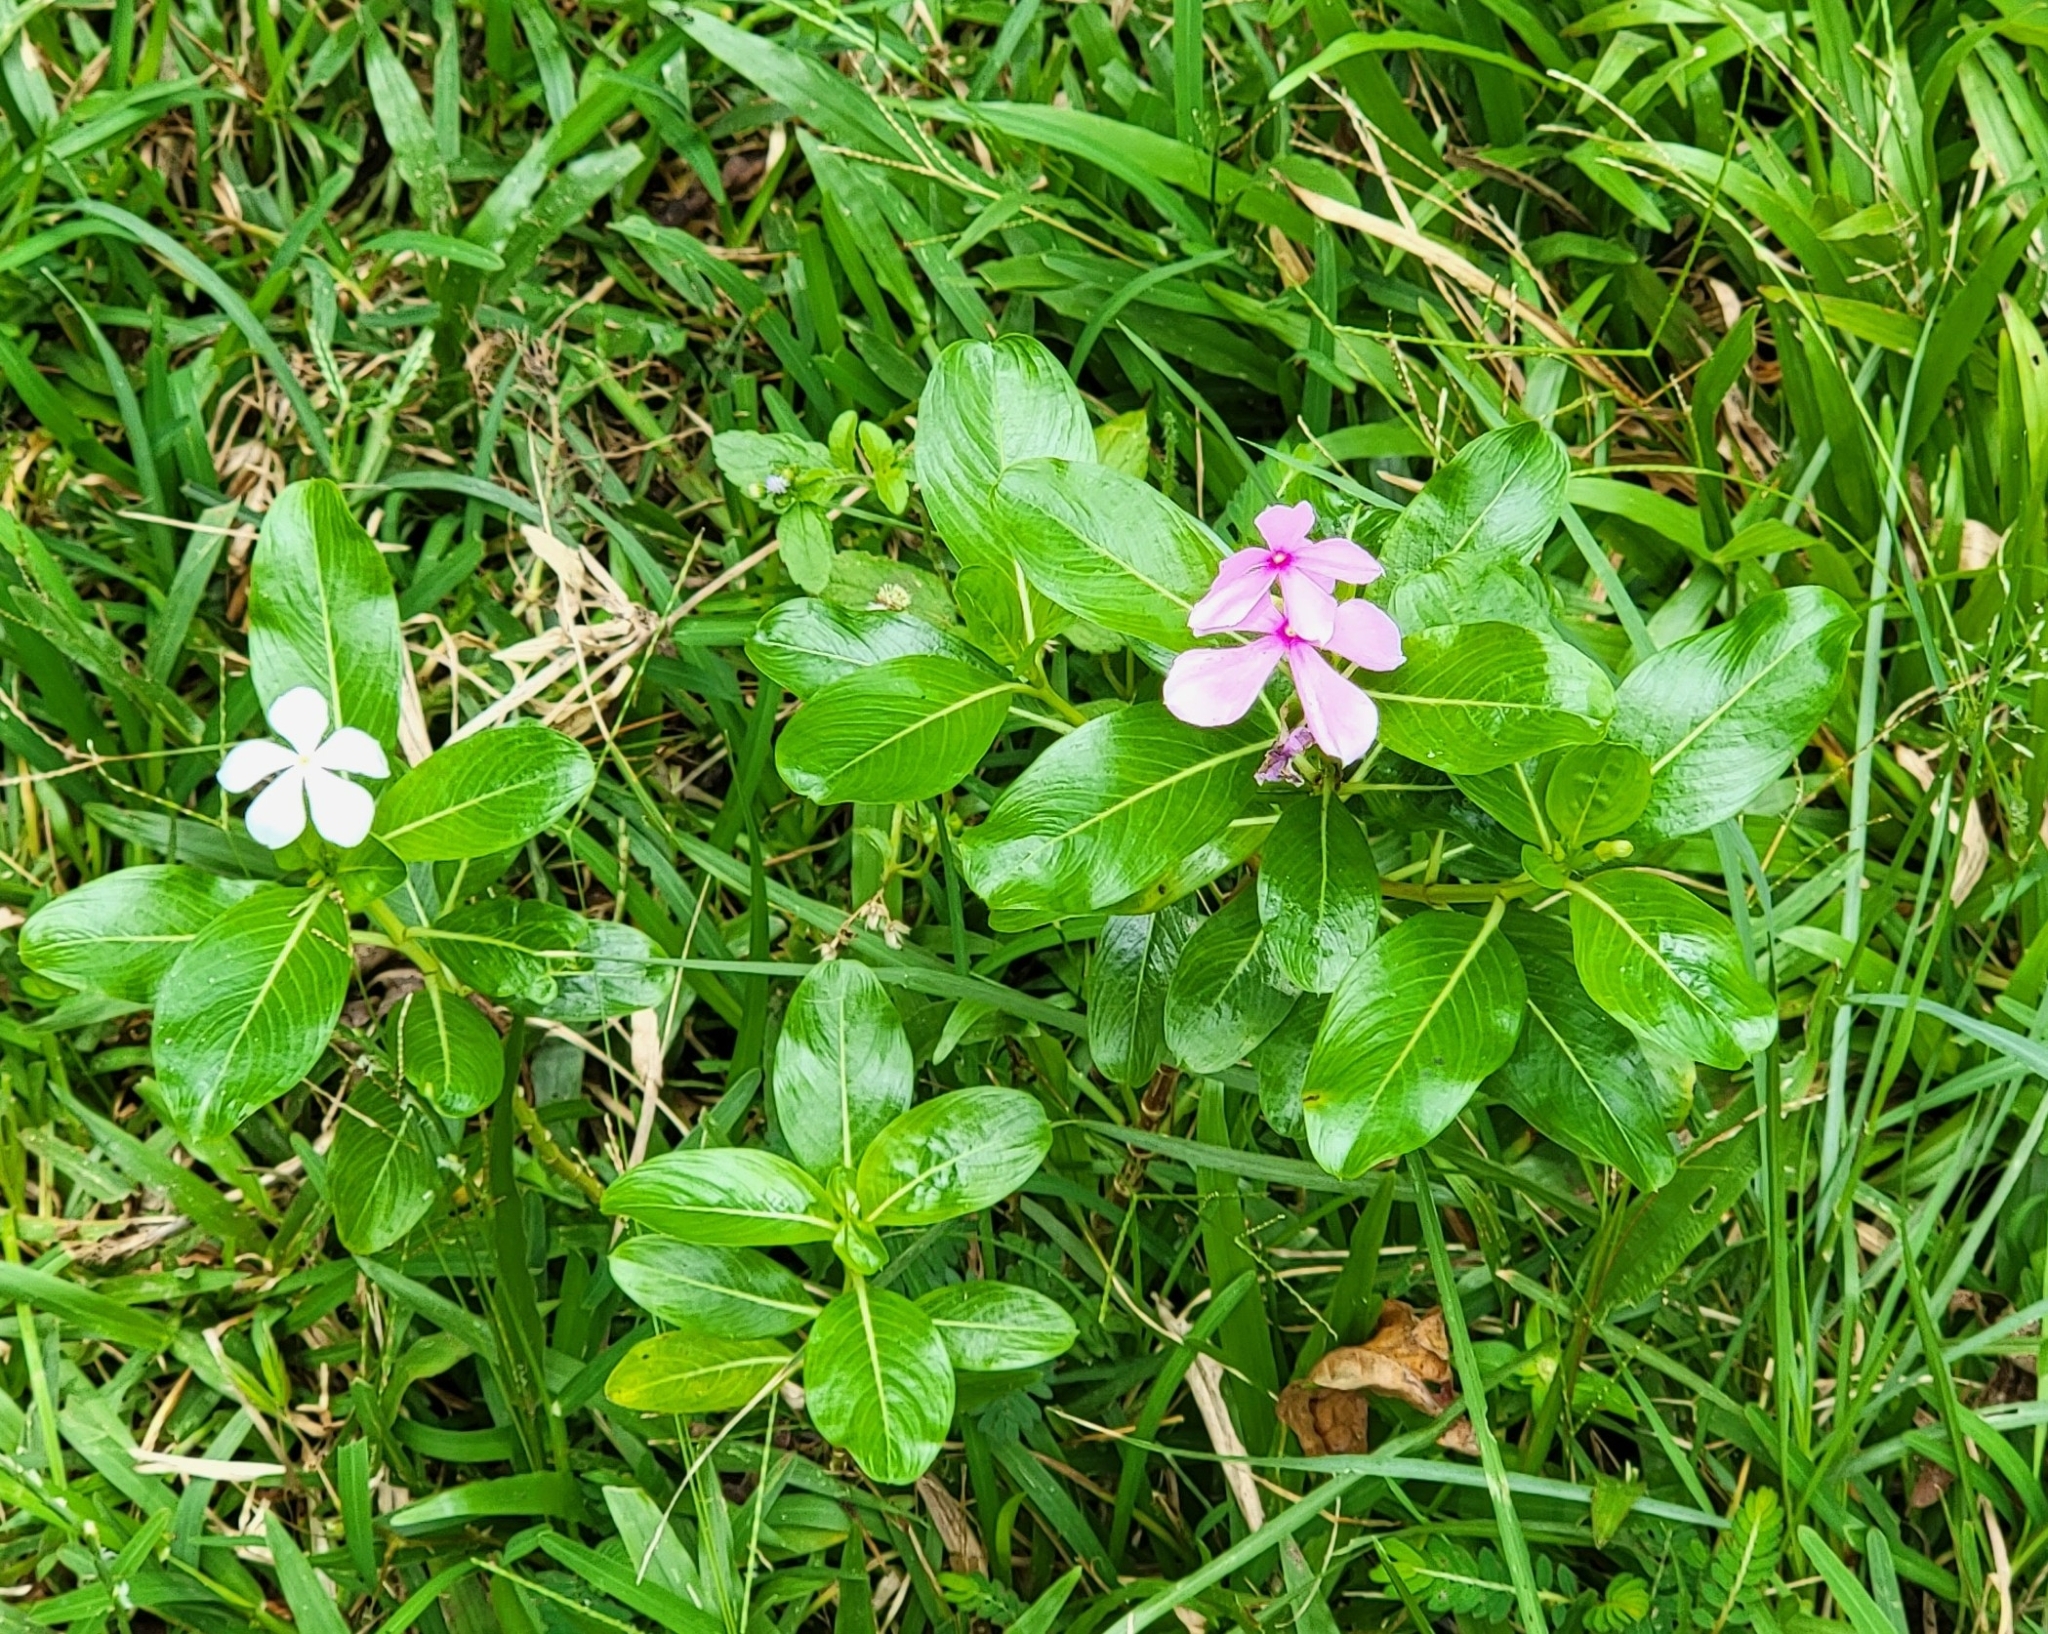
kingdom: Plantae
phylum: Tracheophyta
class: Magnoliopsida
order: Gentianales
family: Apocynaceae
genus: Catharanthus
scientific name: Catharanthus roseus
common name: Madagascar periwinkle
